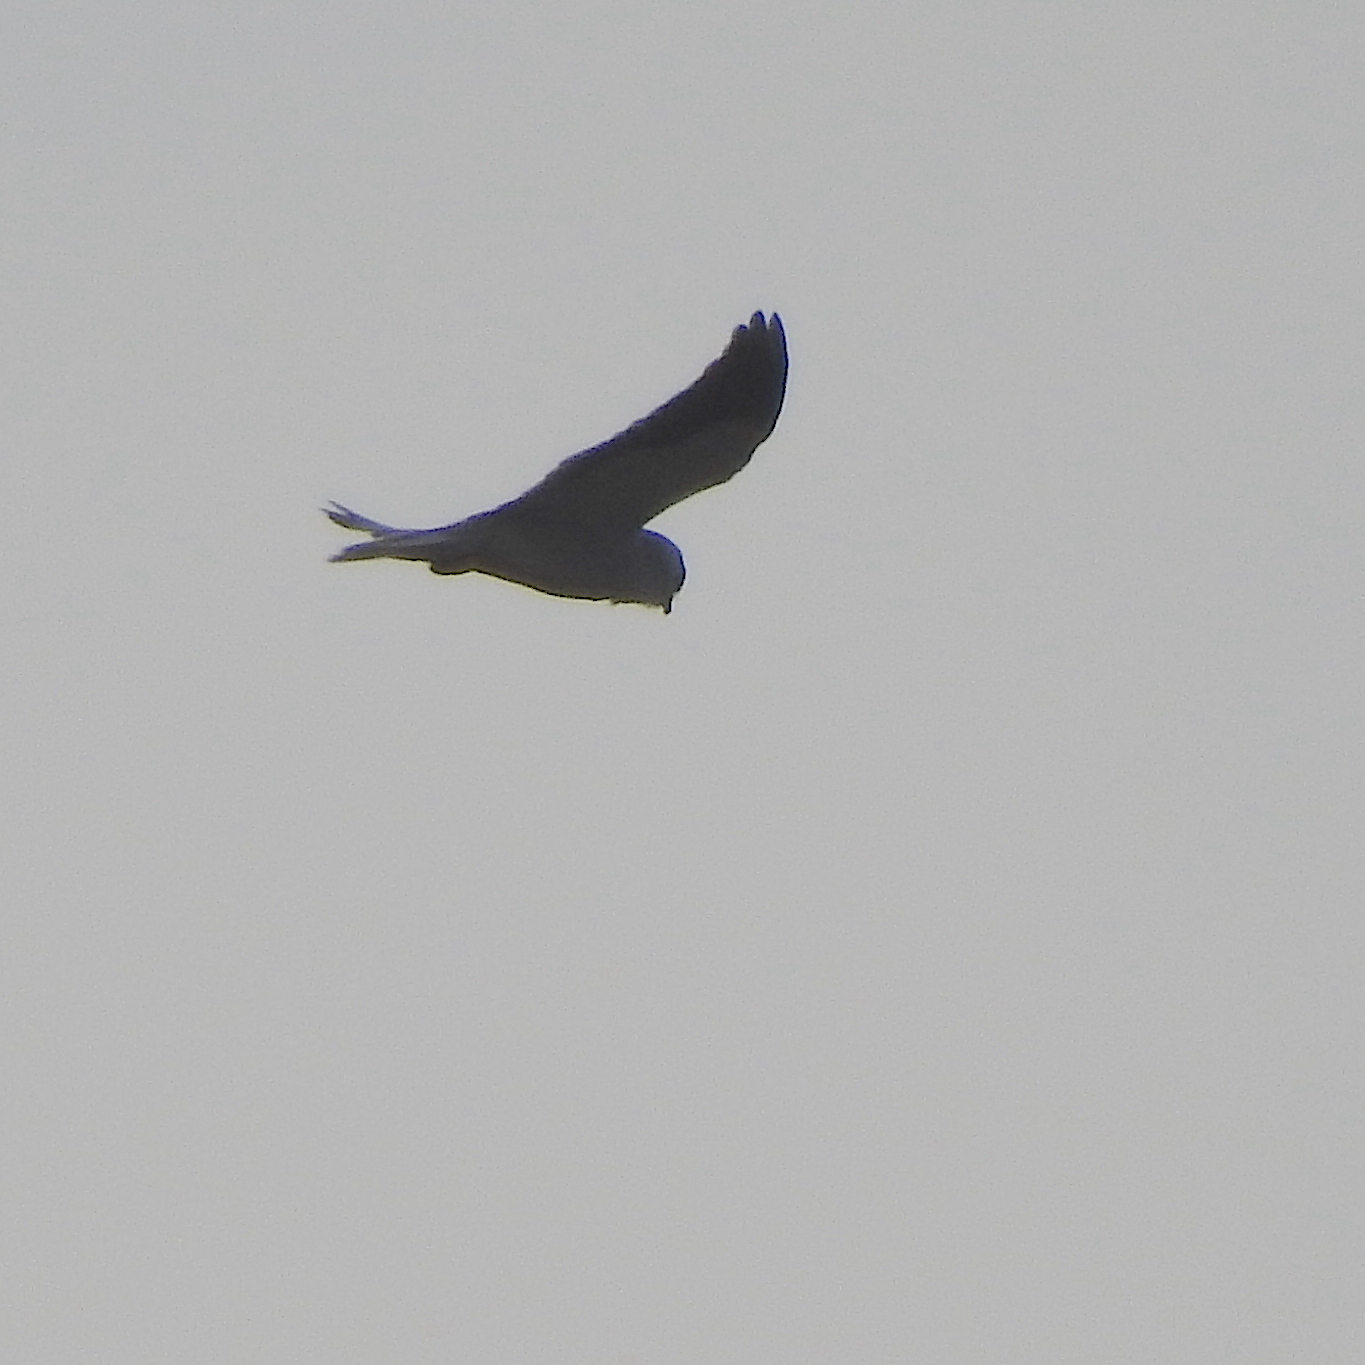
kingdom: Animalia
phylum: Chordata
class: Aves
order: Accipitriformes
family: Accipitridae
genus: Elanus
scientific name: Elanus caeruleus
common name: Black-winged kite
